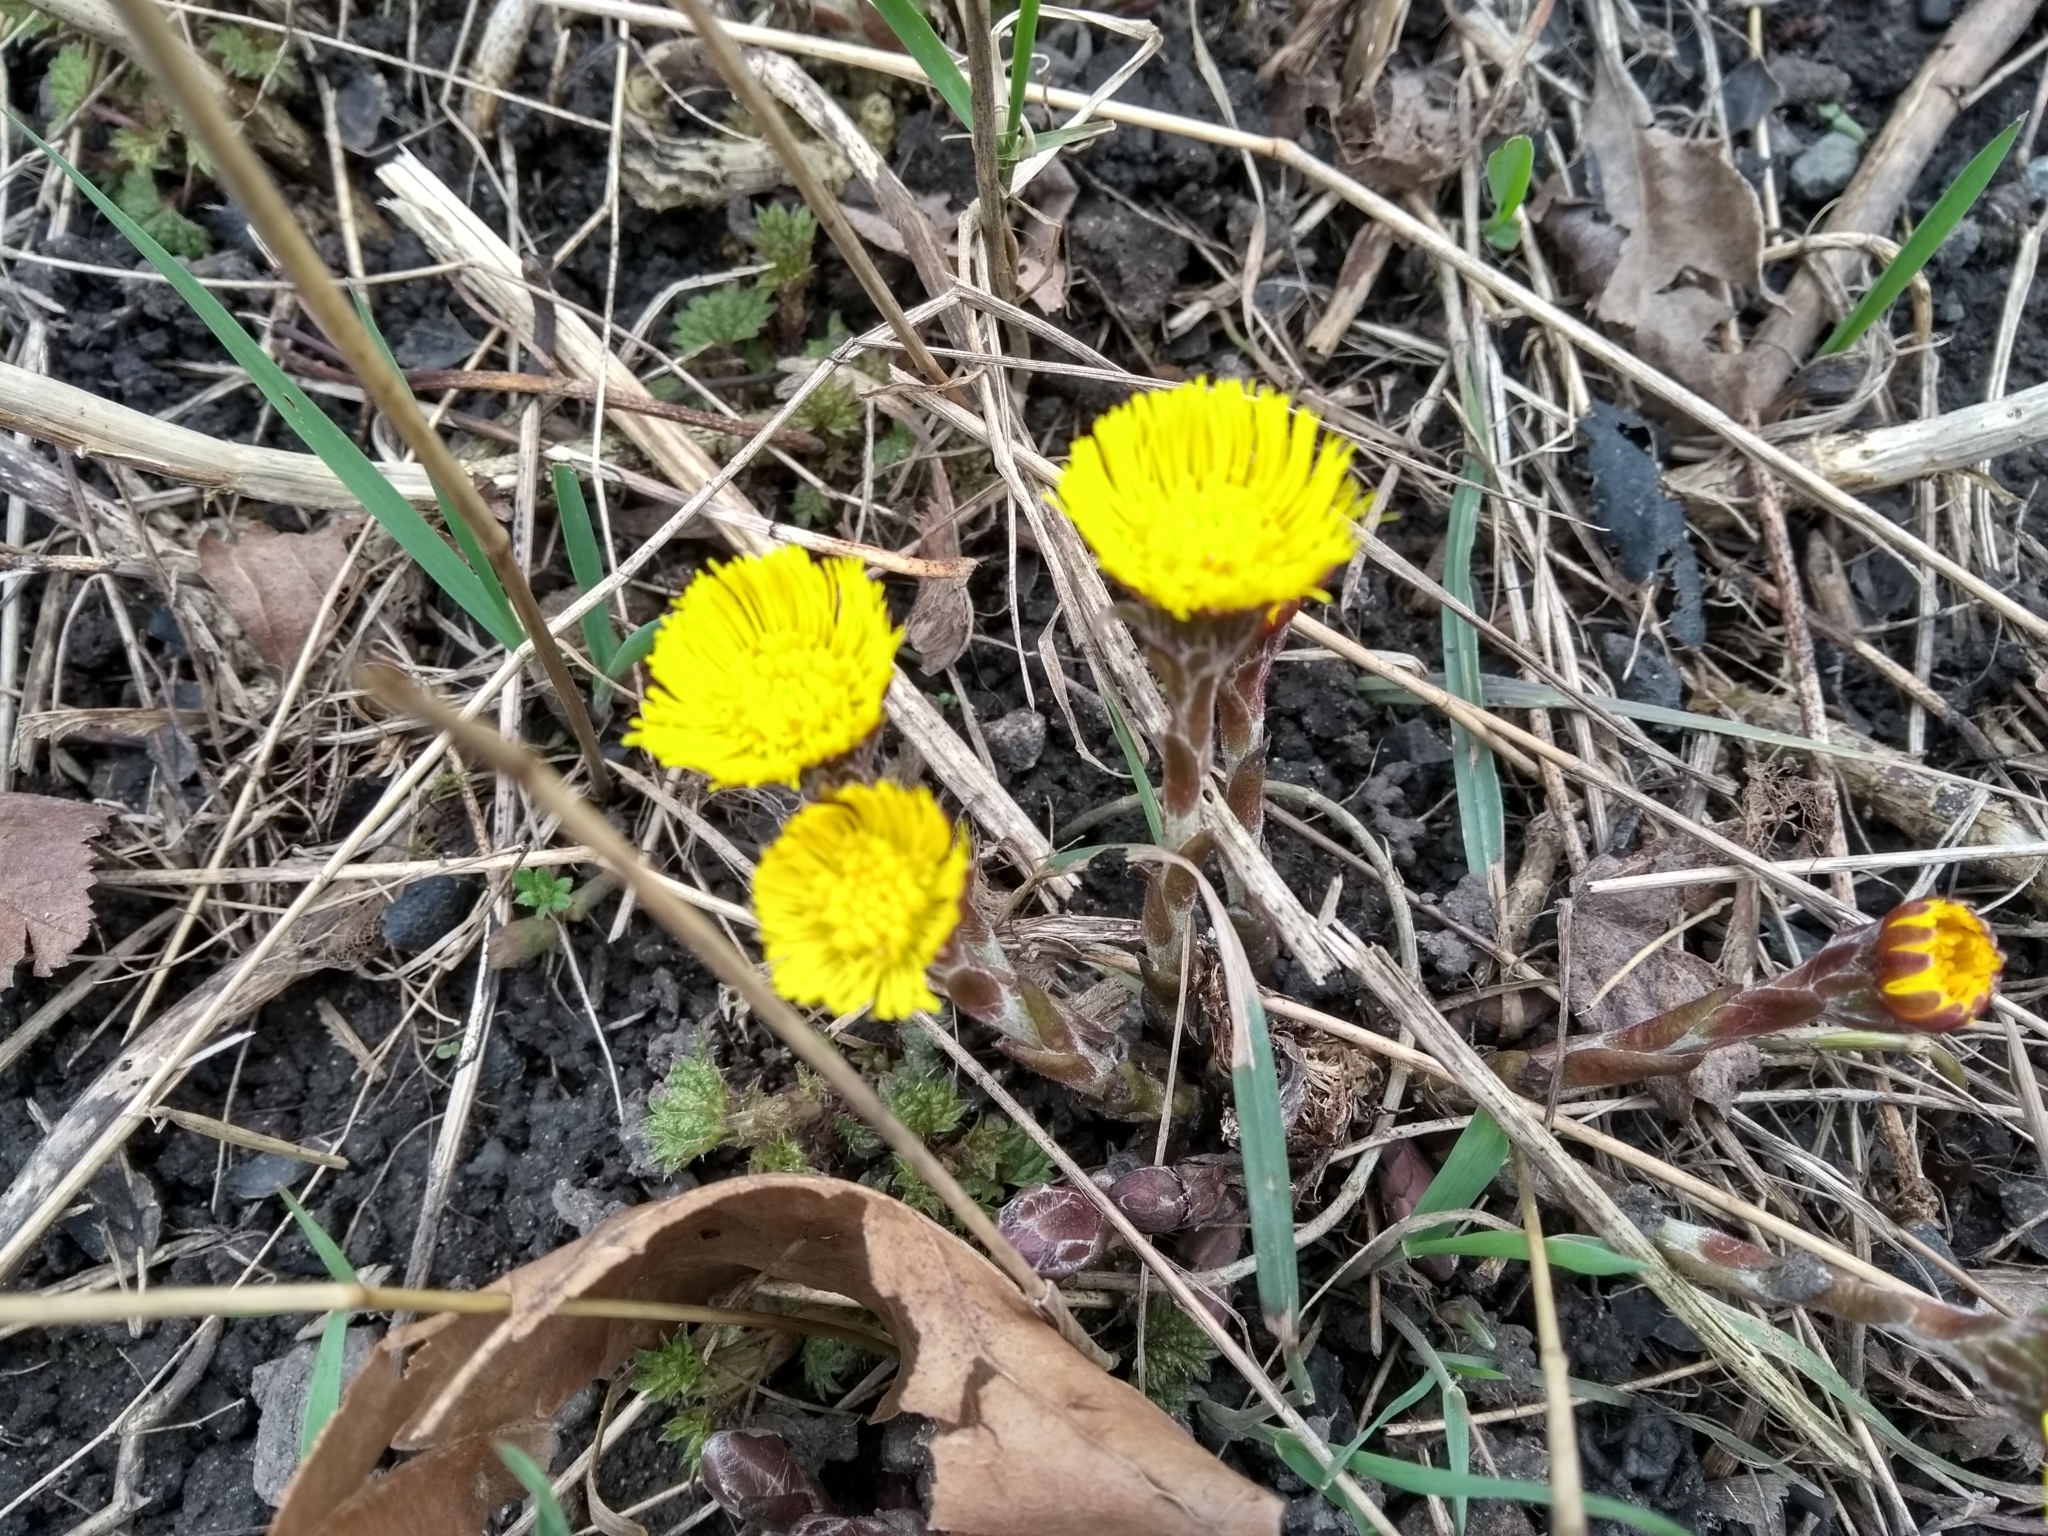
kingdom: Plantae
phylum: Tracheophyta
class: Magnoliopsida
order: Asterales
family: Asteraceae
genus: Tussilago
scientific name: Tussilago farfara
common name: Coltsfoot
